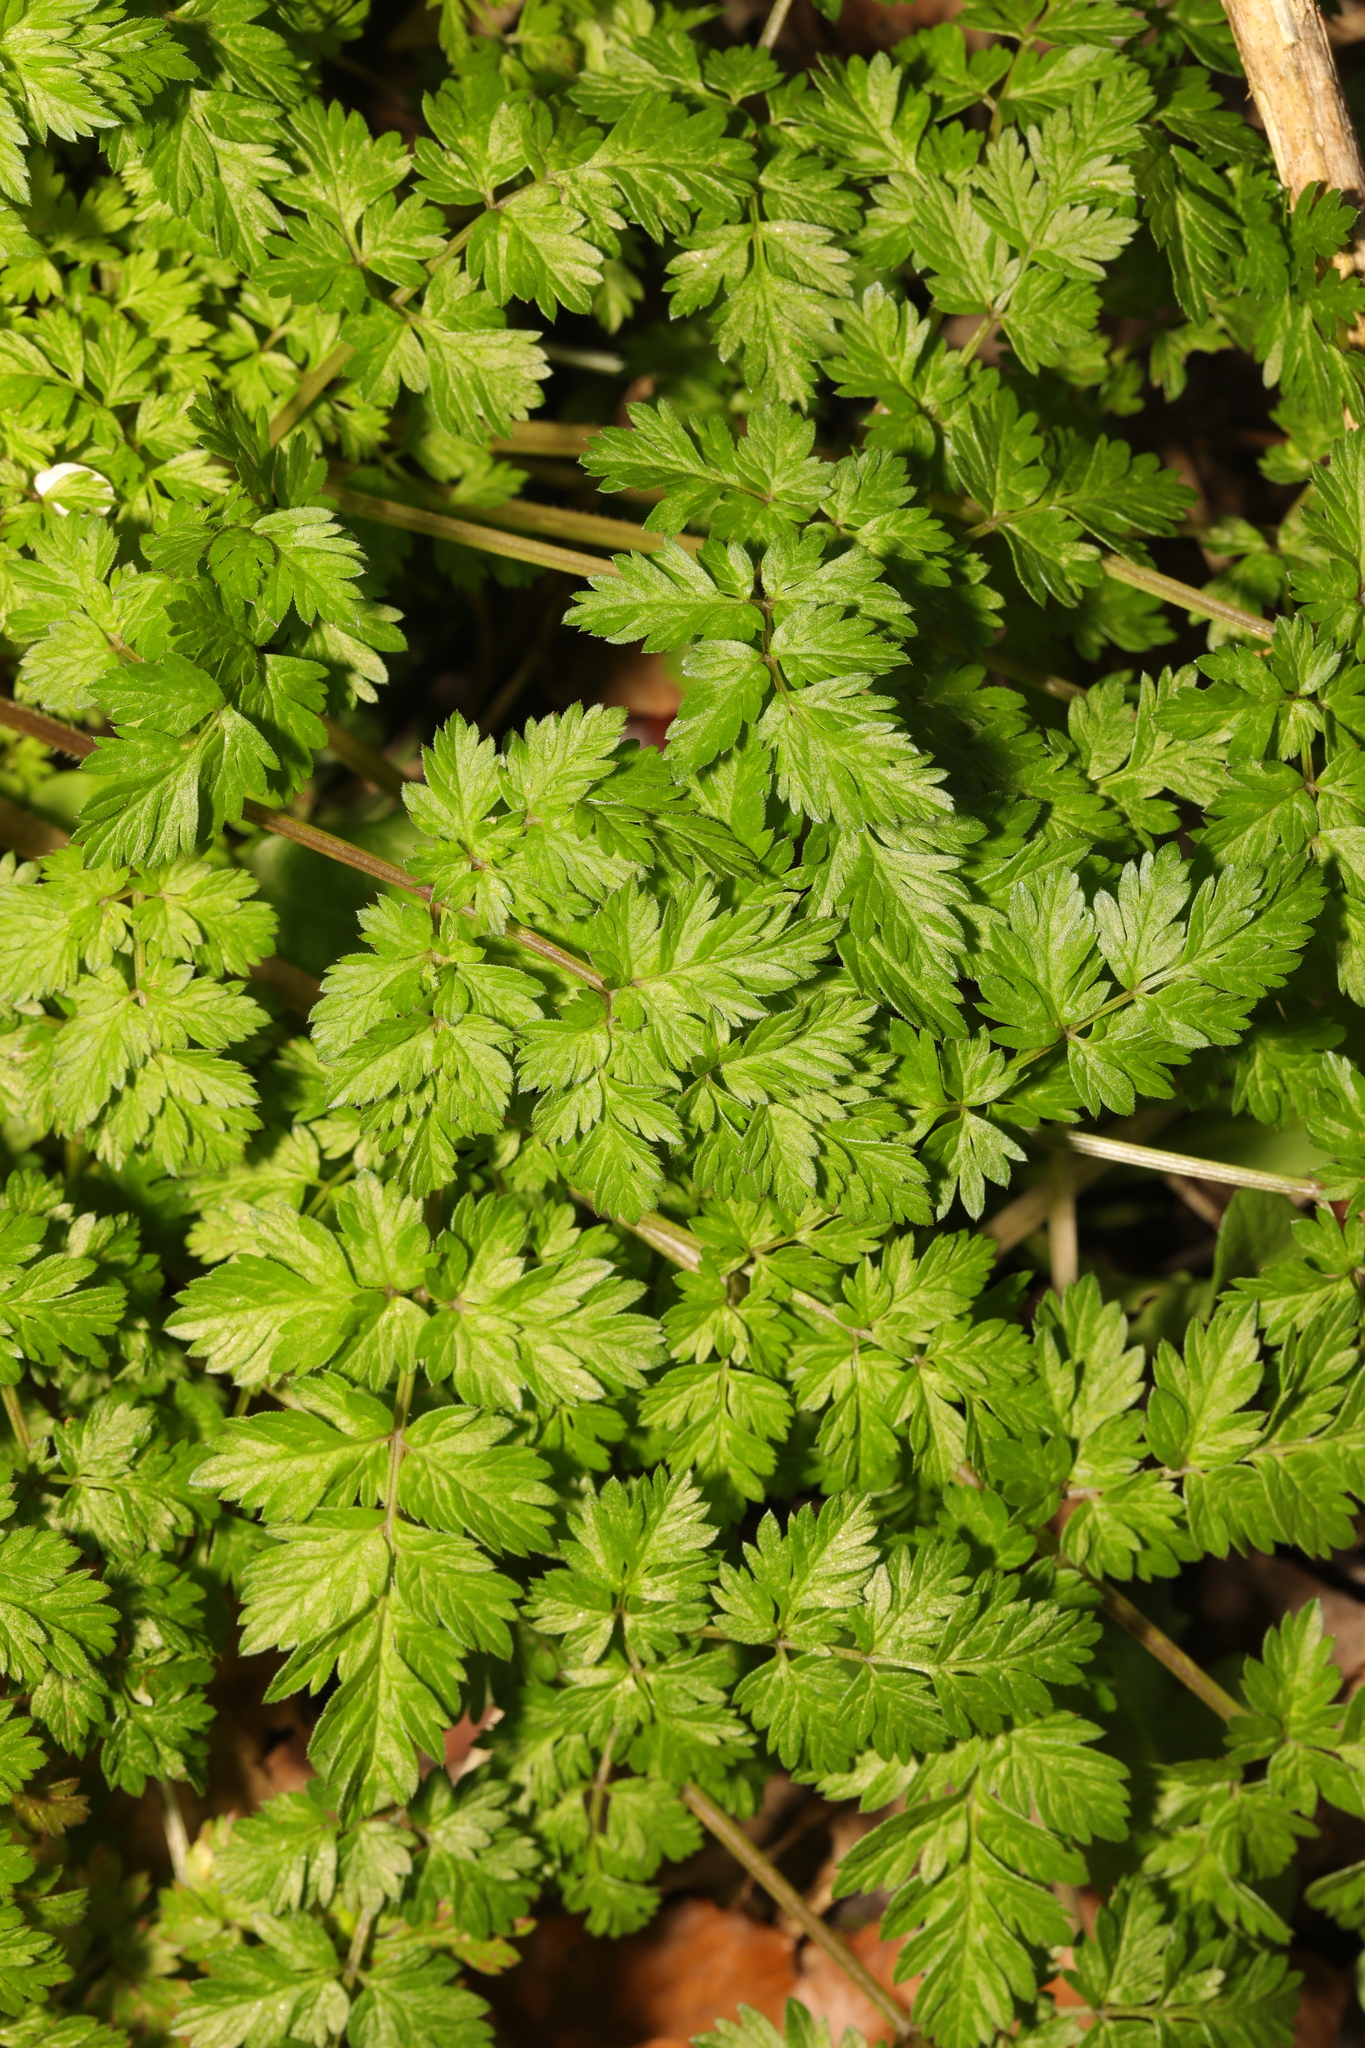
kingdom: Plantae
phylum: Tracheophyta
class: Magnoliopsida
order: Apiales
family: Apiaceae
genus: Anthriscus
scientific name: Anthriscus sylvestris
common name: Cow parsley
